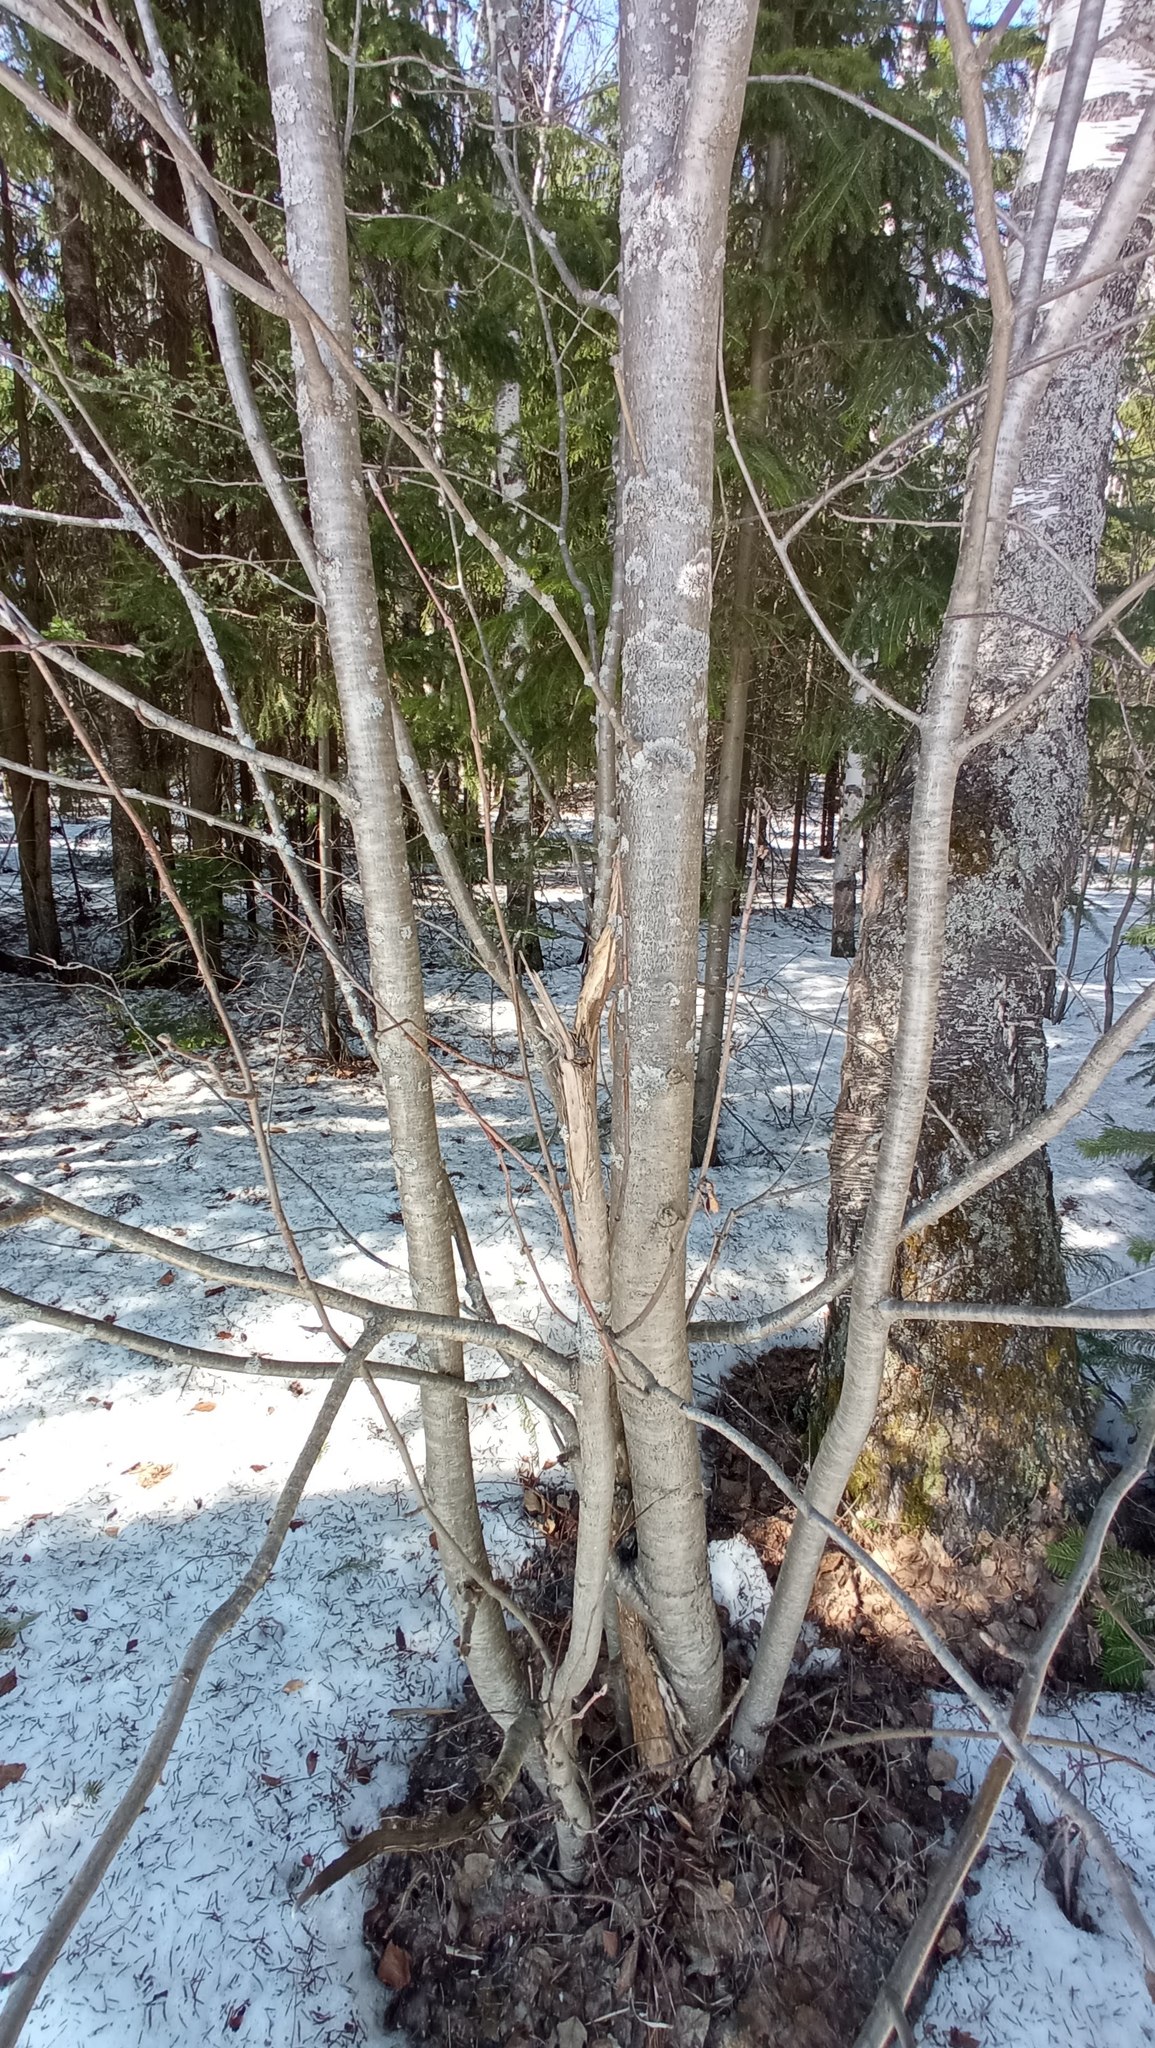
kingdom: Plantae
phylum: Tracheophyta
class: Magnoliopsida
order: Rosales
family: Rosaceae
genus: Sorbus
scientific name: Sorbus aucuparia
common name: Rowan
